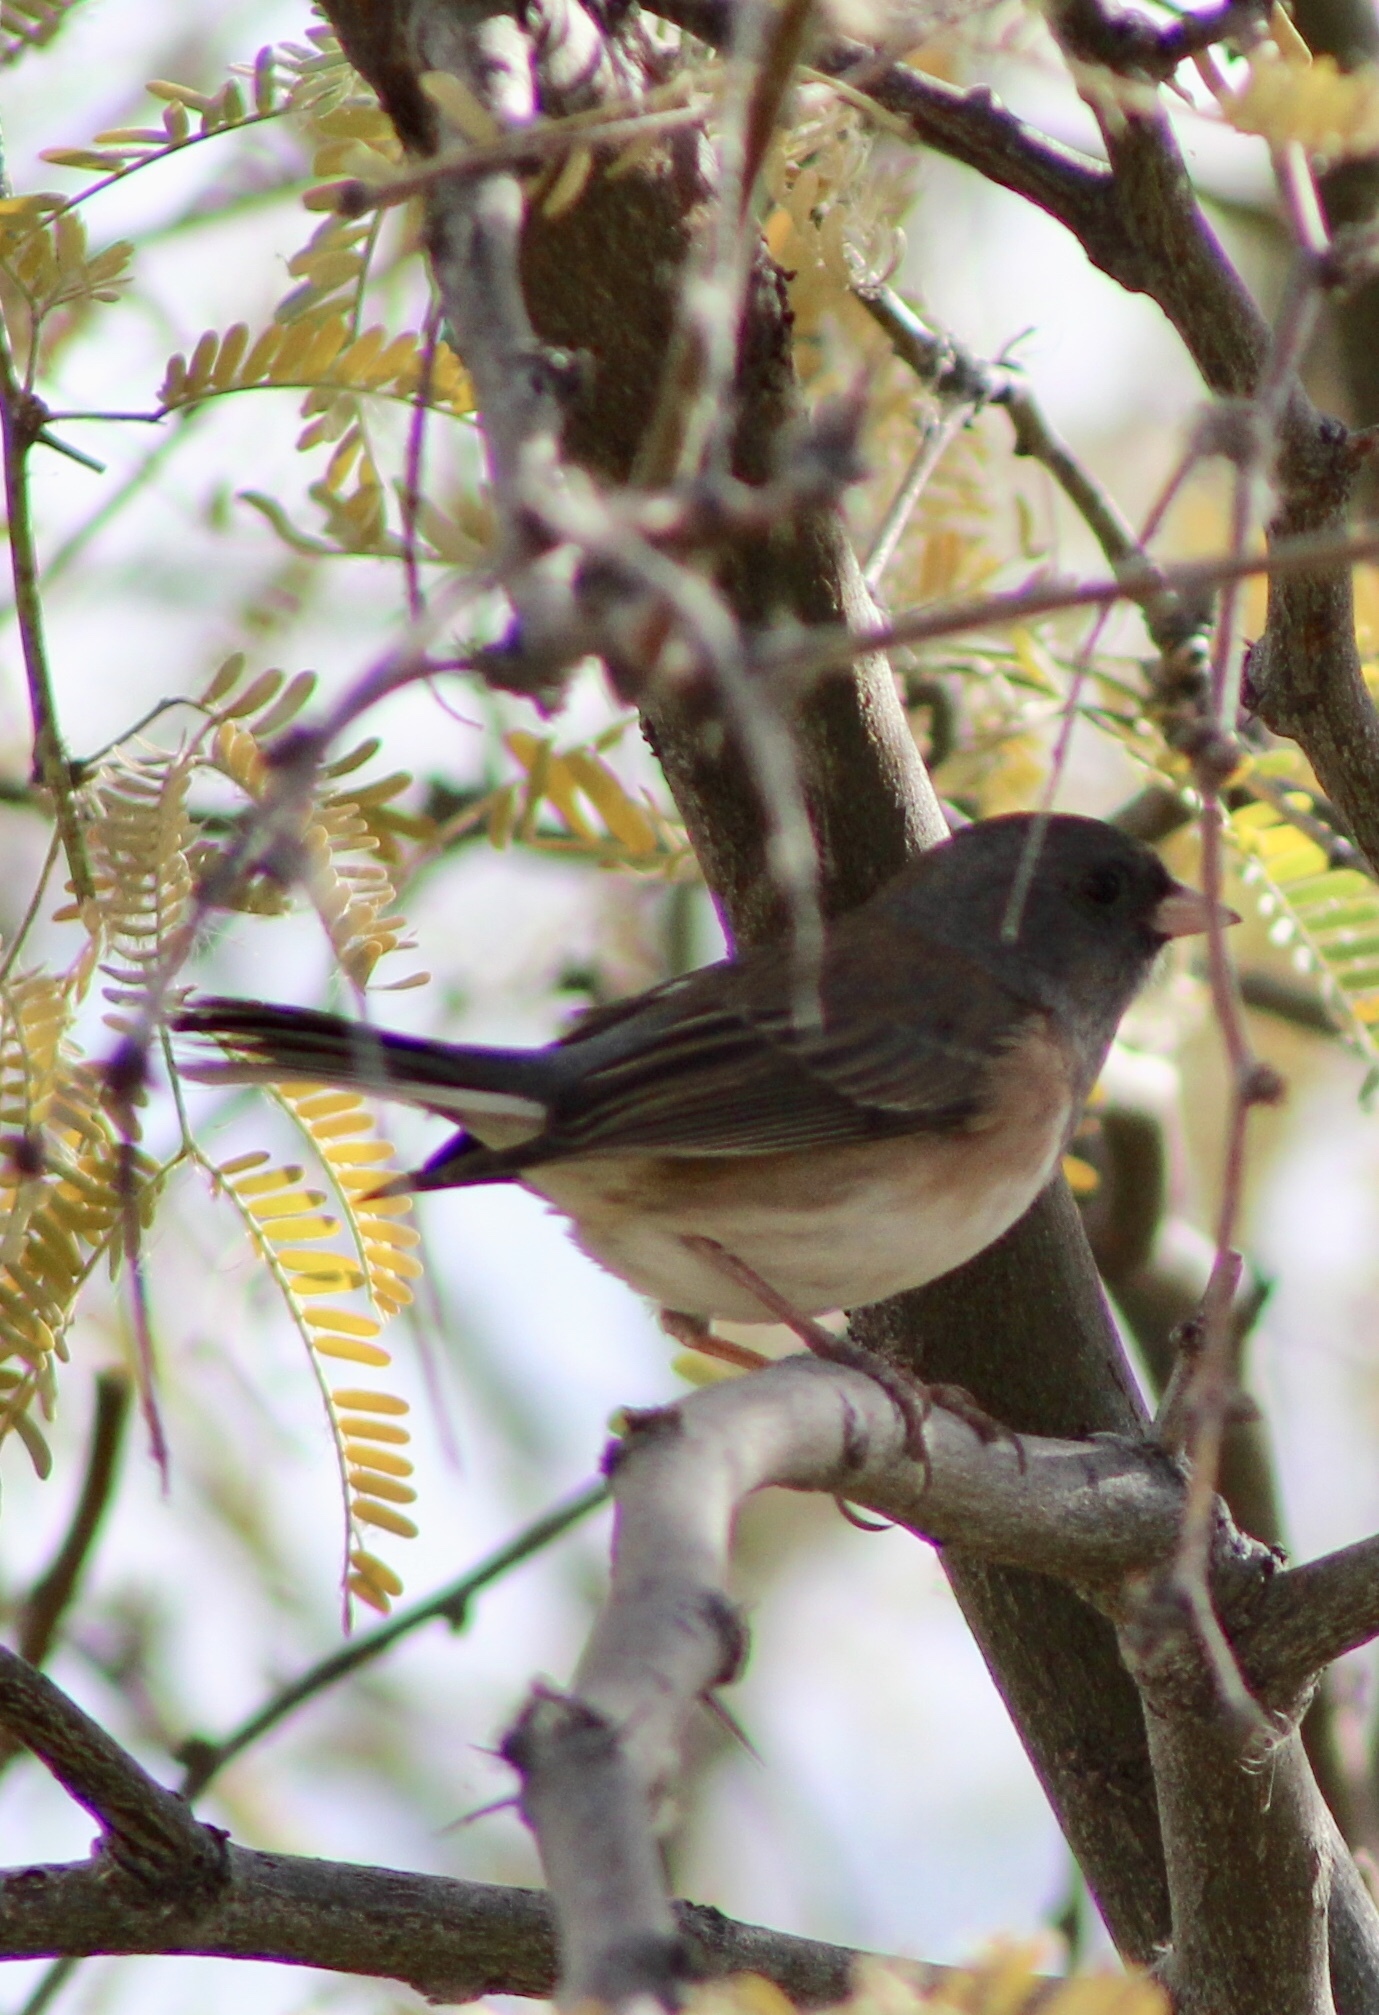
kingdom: Animalia
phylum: Chordata
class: Aves
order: Passeriformes
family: Passerellidae
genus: Junco
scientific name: Junco hyemalis
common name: Dark-eyed junco
